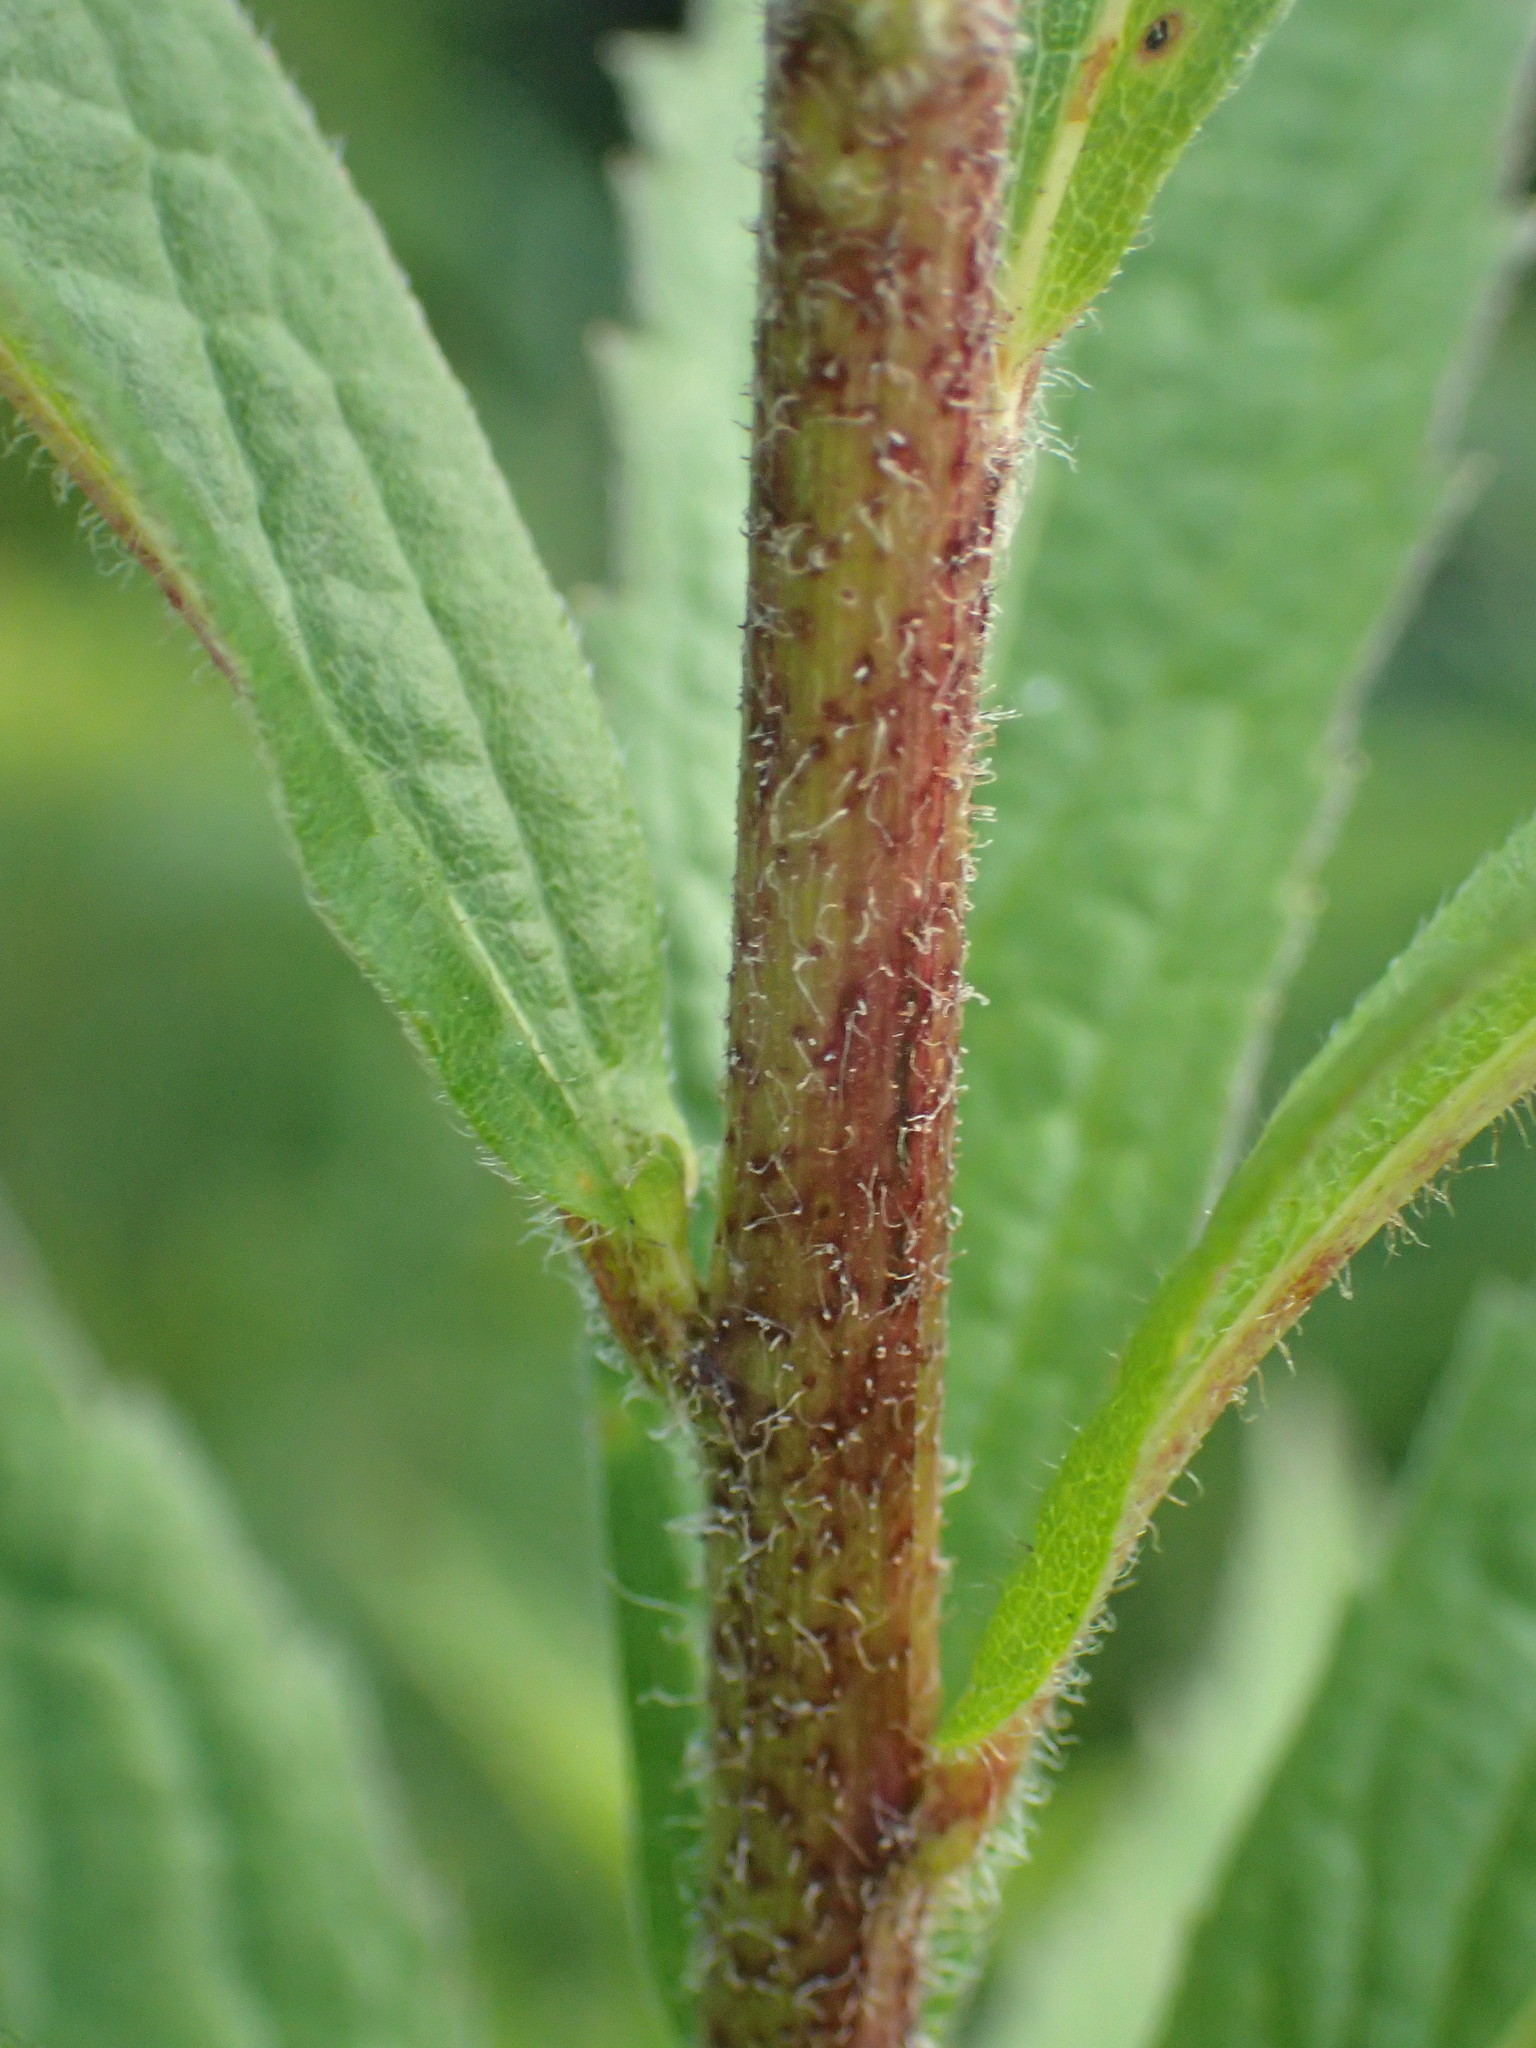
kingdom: Plantae
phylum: Tracheophyta
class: Magnoliopsida
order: Asterales
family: Asteraceae
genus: Solidago
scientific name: Solidago rugosa
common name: Rough-stemmed goldenrod
